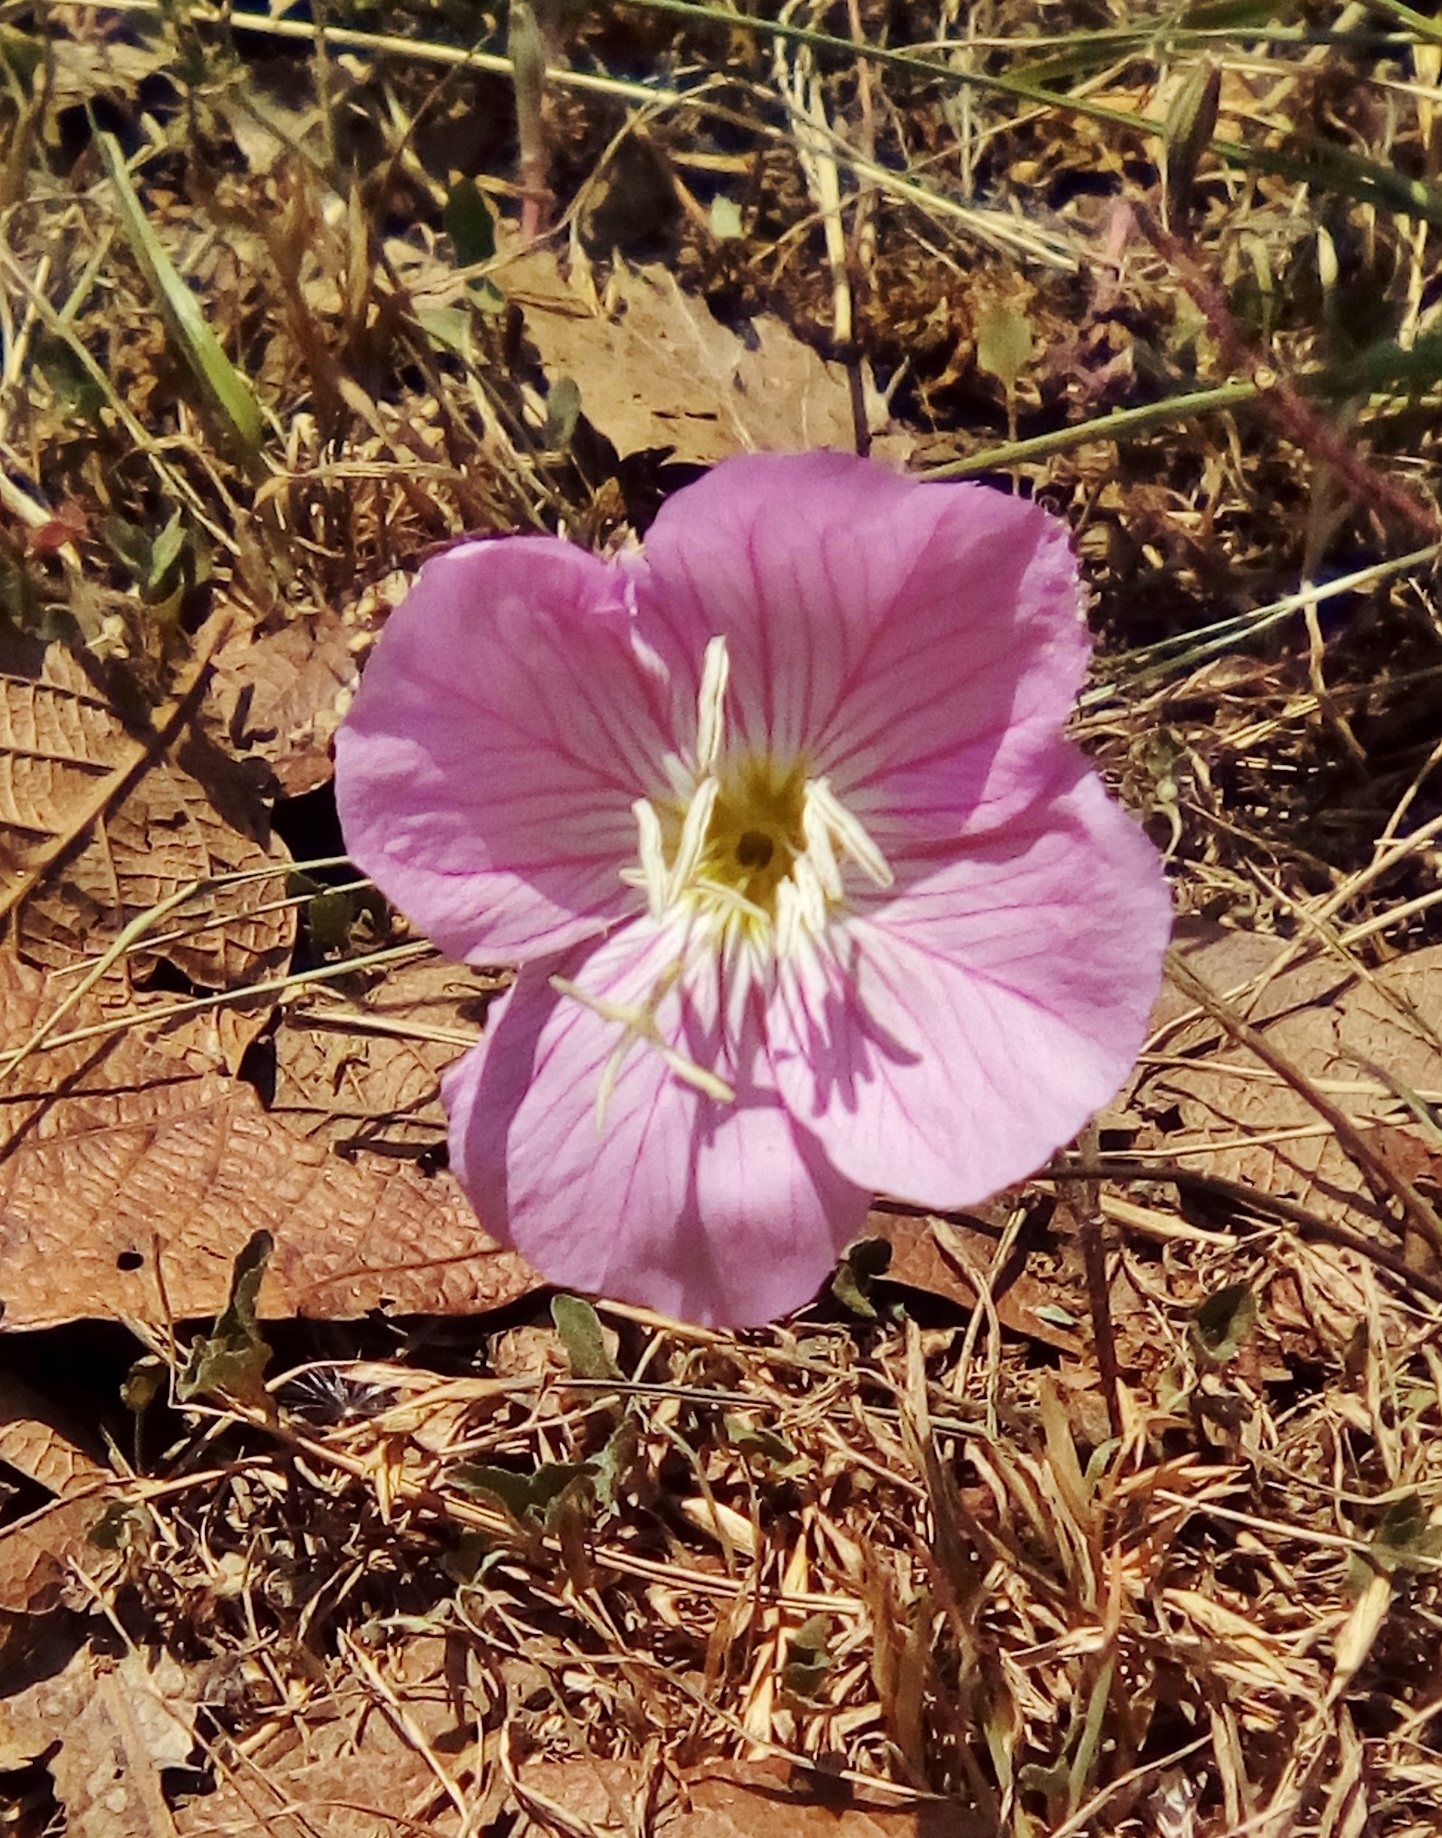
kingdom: Plantae
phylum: Tracheophyta
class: Magnoliopsida
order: Myrtales
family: Onagraceae
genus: Oenothera
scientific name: Oenothera speciosa
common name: White evening-primrose
